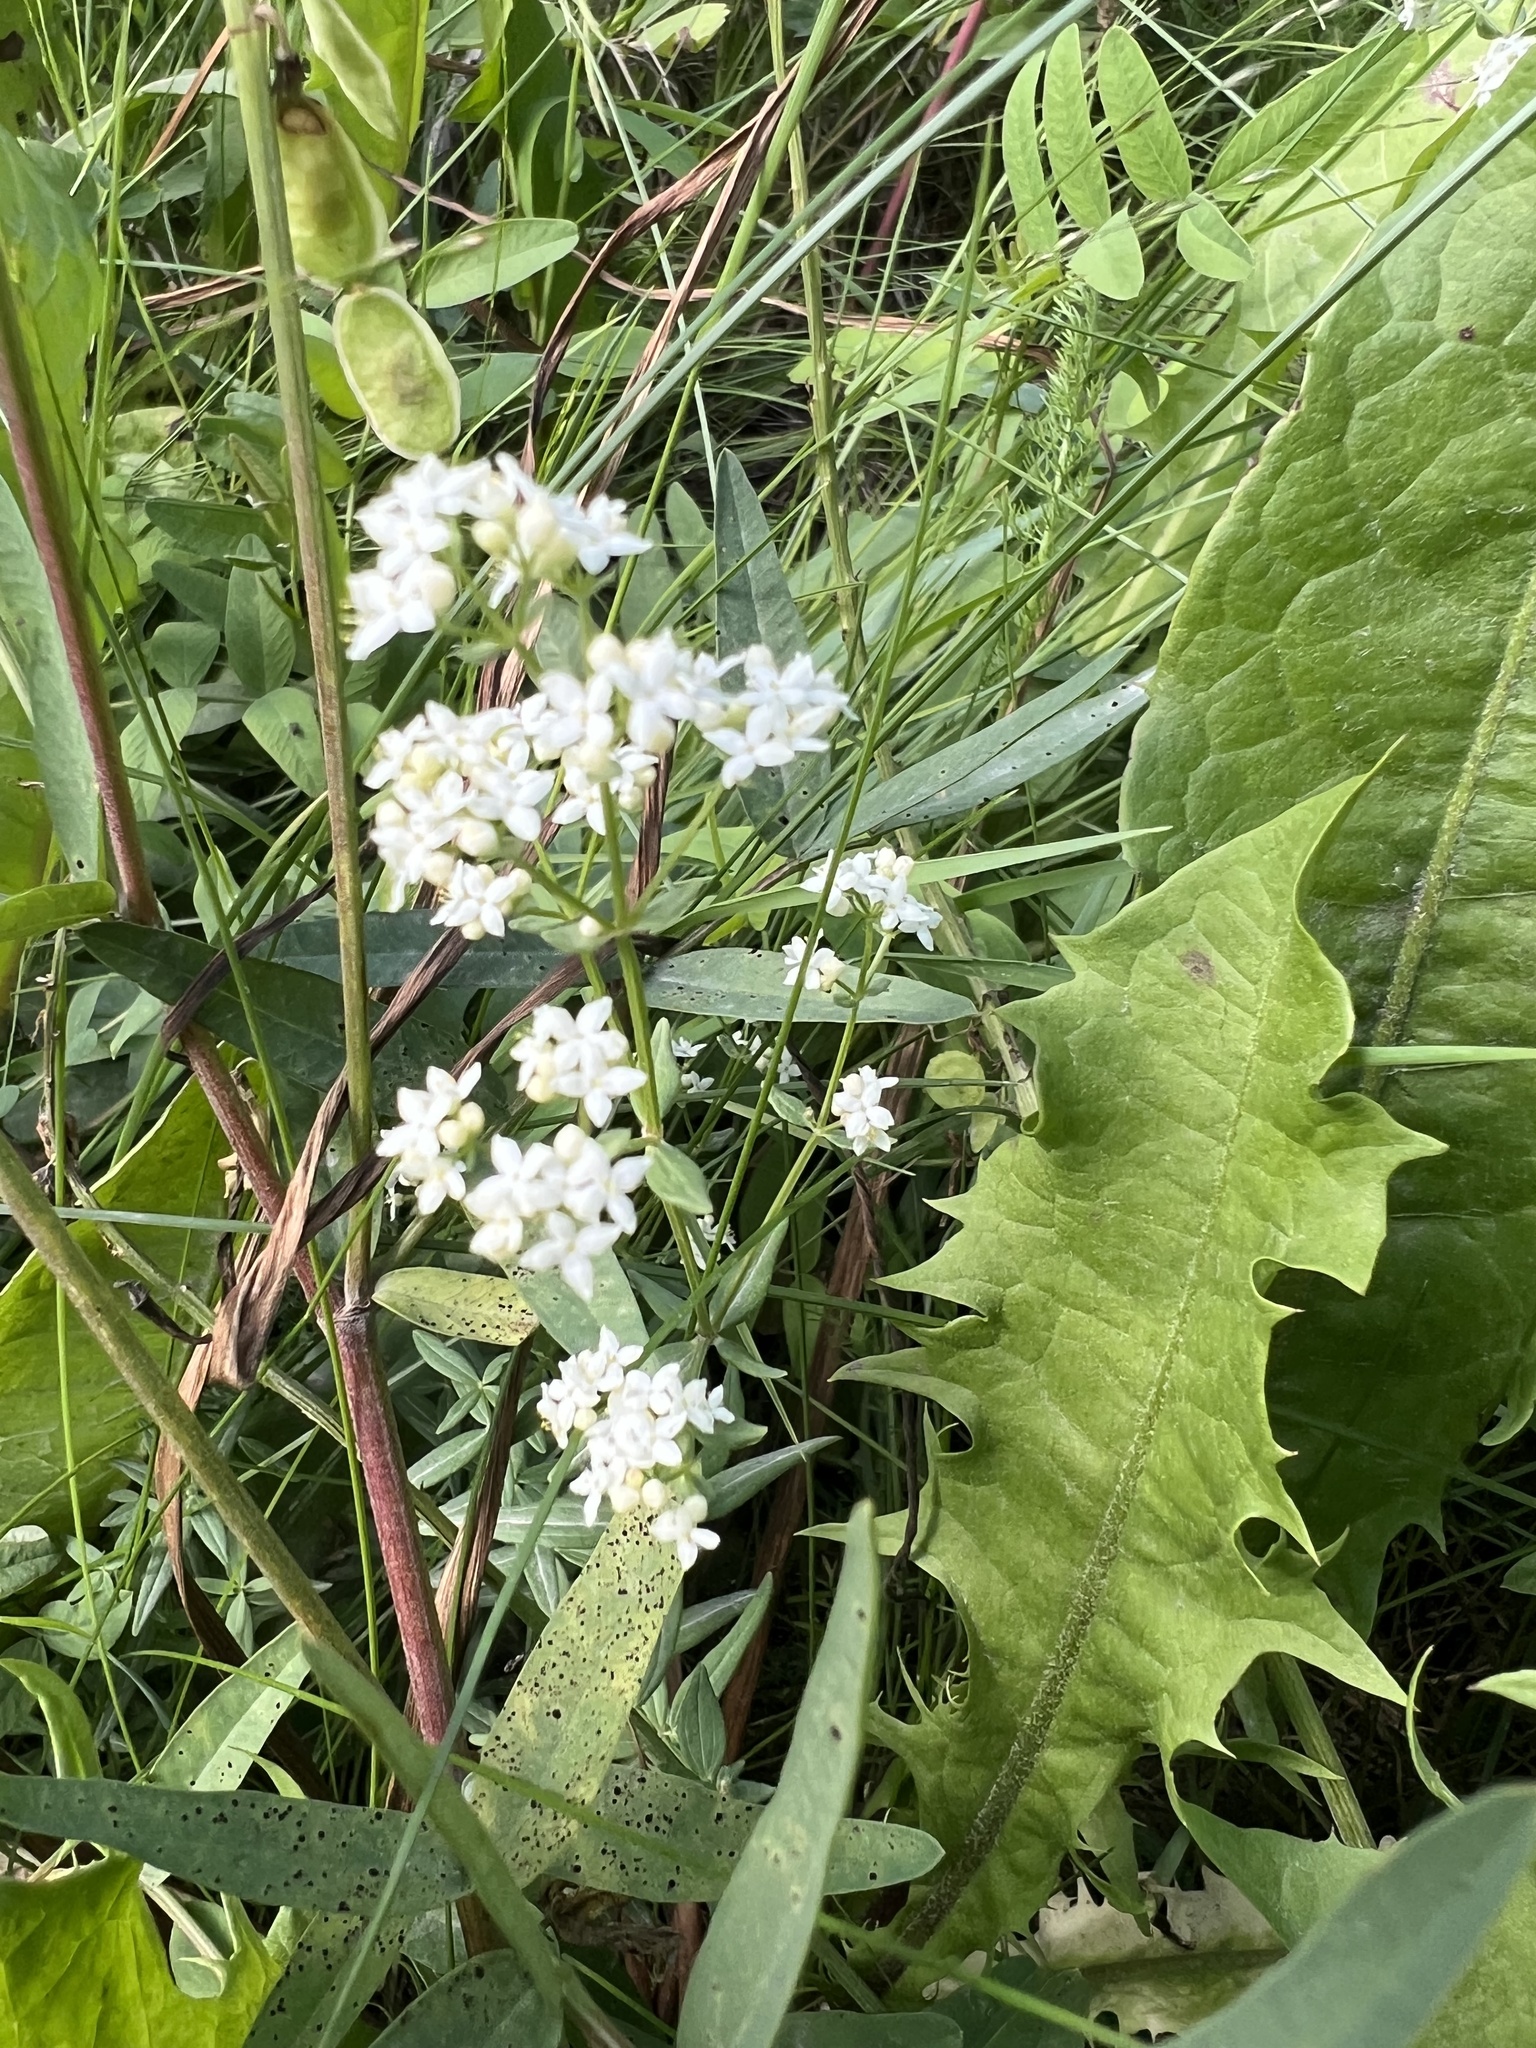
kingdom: Plantae
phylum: Tracheophyta
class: Magnoliopsida
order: Gentianales
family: Rubiaceae
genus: Galium
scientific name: Galium boreale
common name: Northern bedstraw
